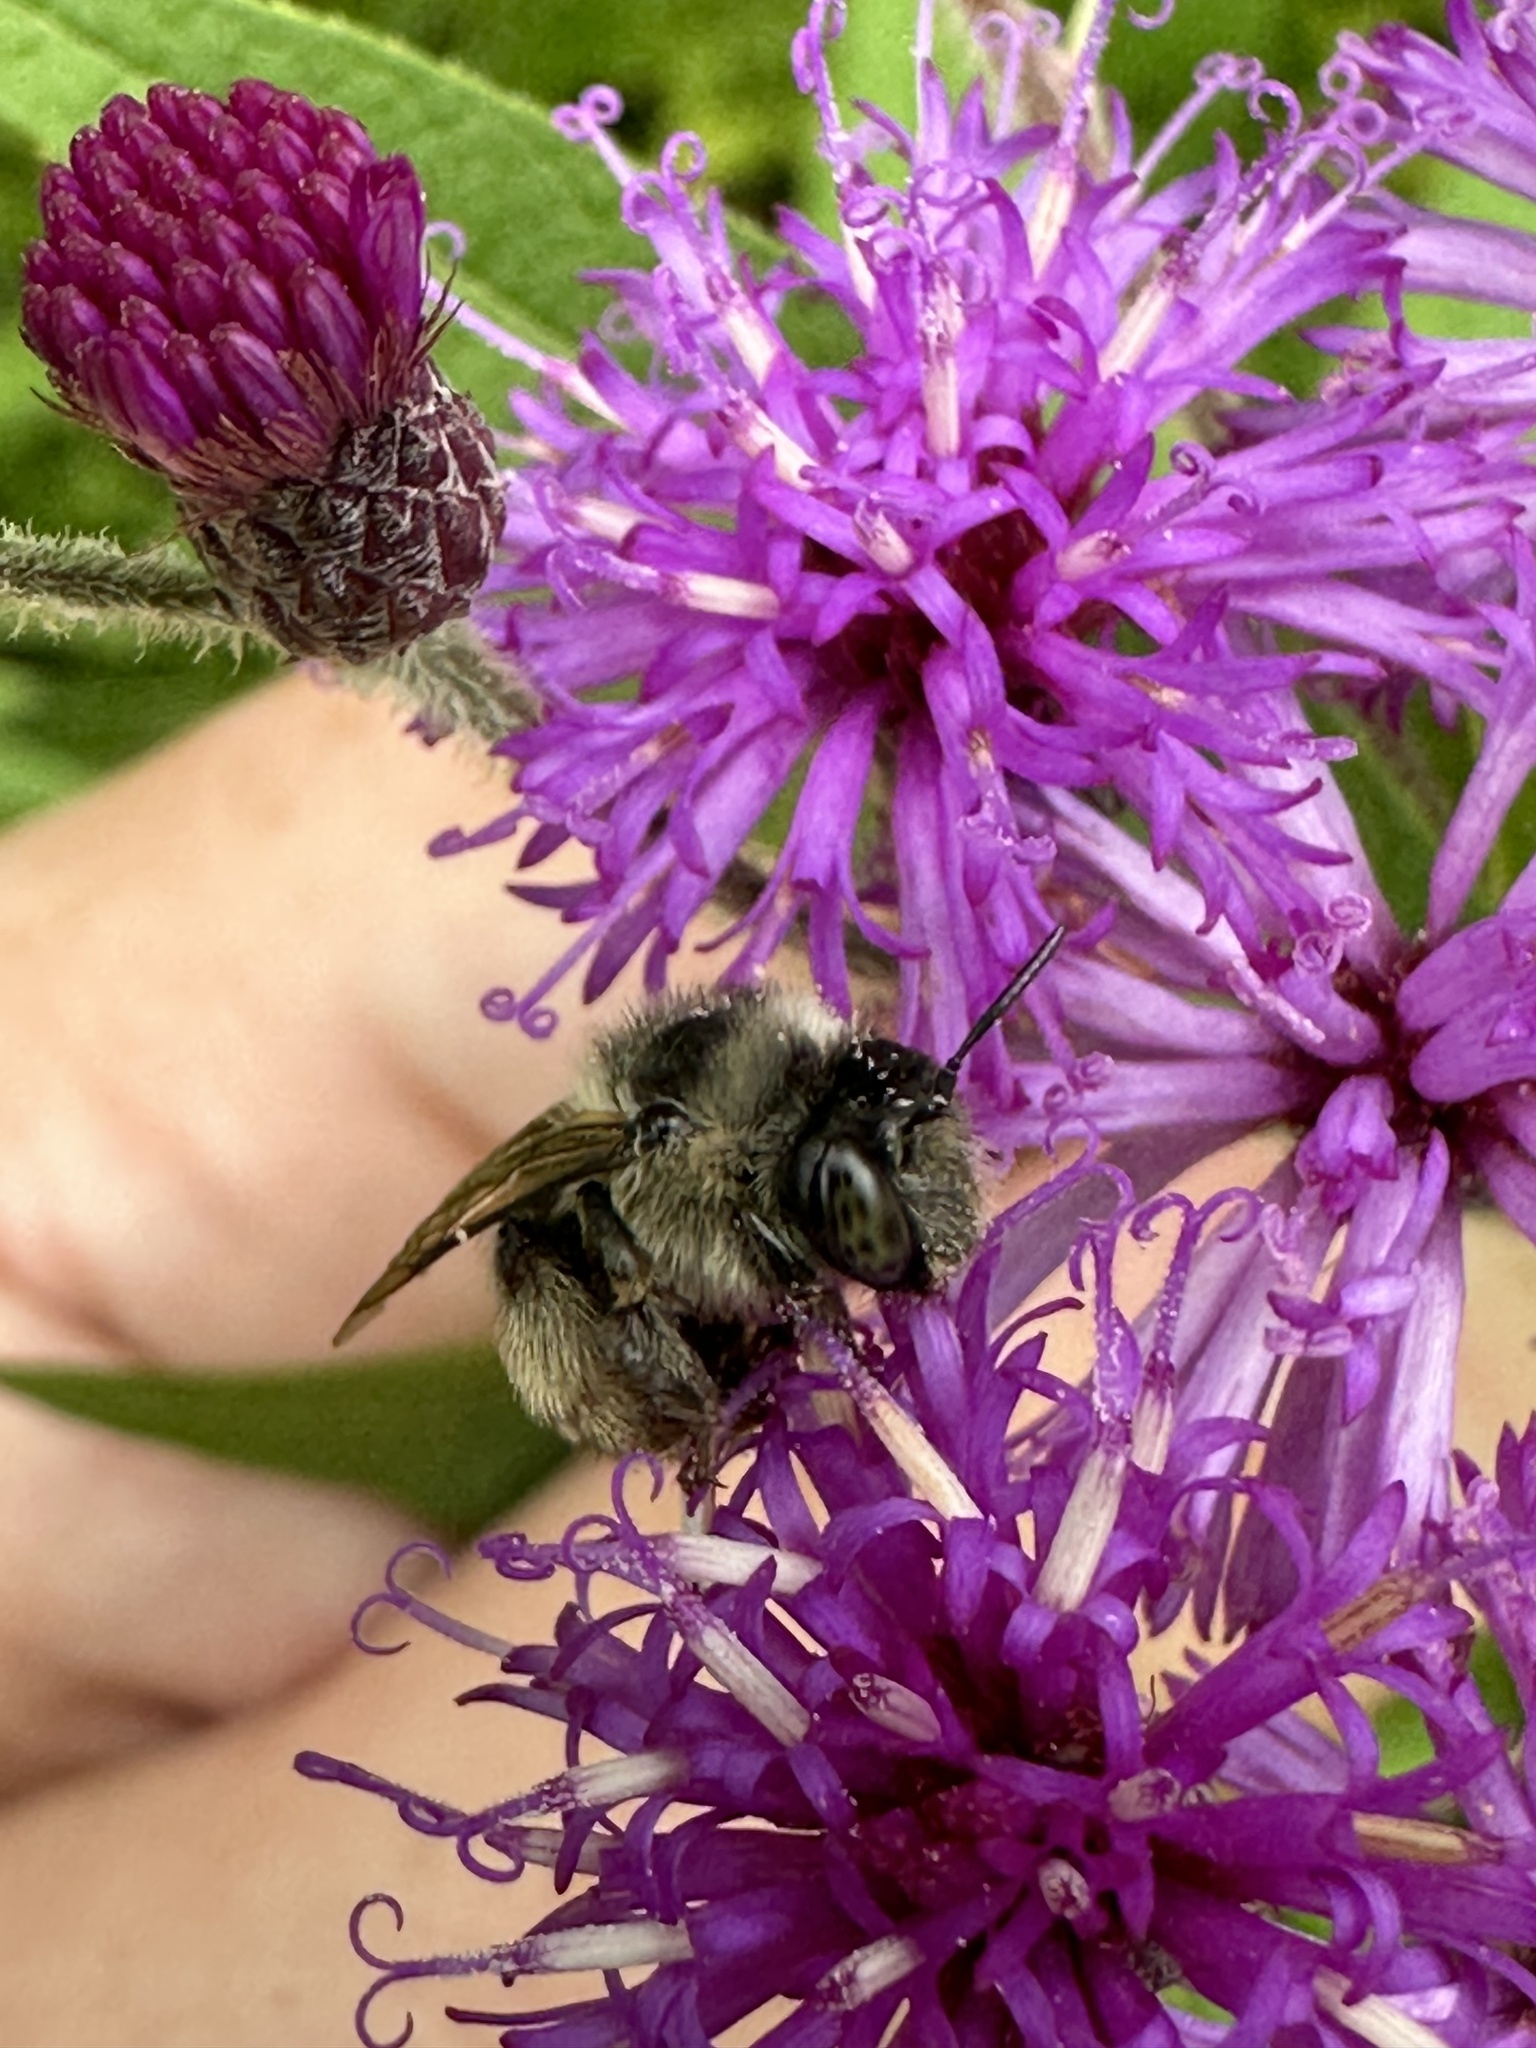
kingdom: Animalia
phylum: Arthropoda
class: Insecta
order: Hymenoptera
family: Apidae
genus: Anthophora
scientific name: Anthophora terminalis
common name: Orange-tipped wood-digger bee
